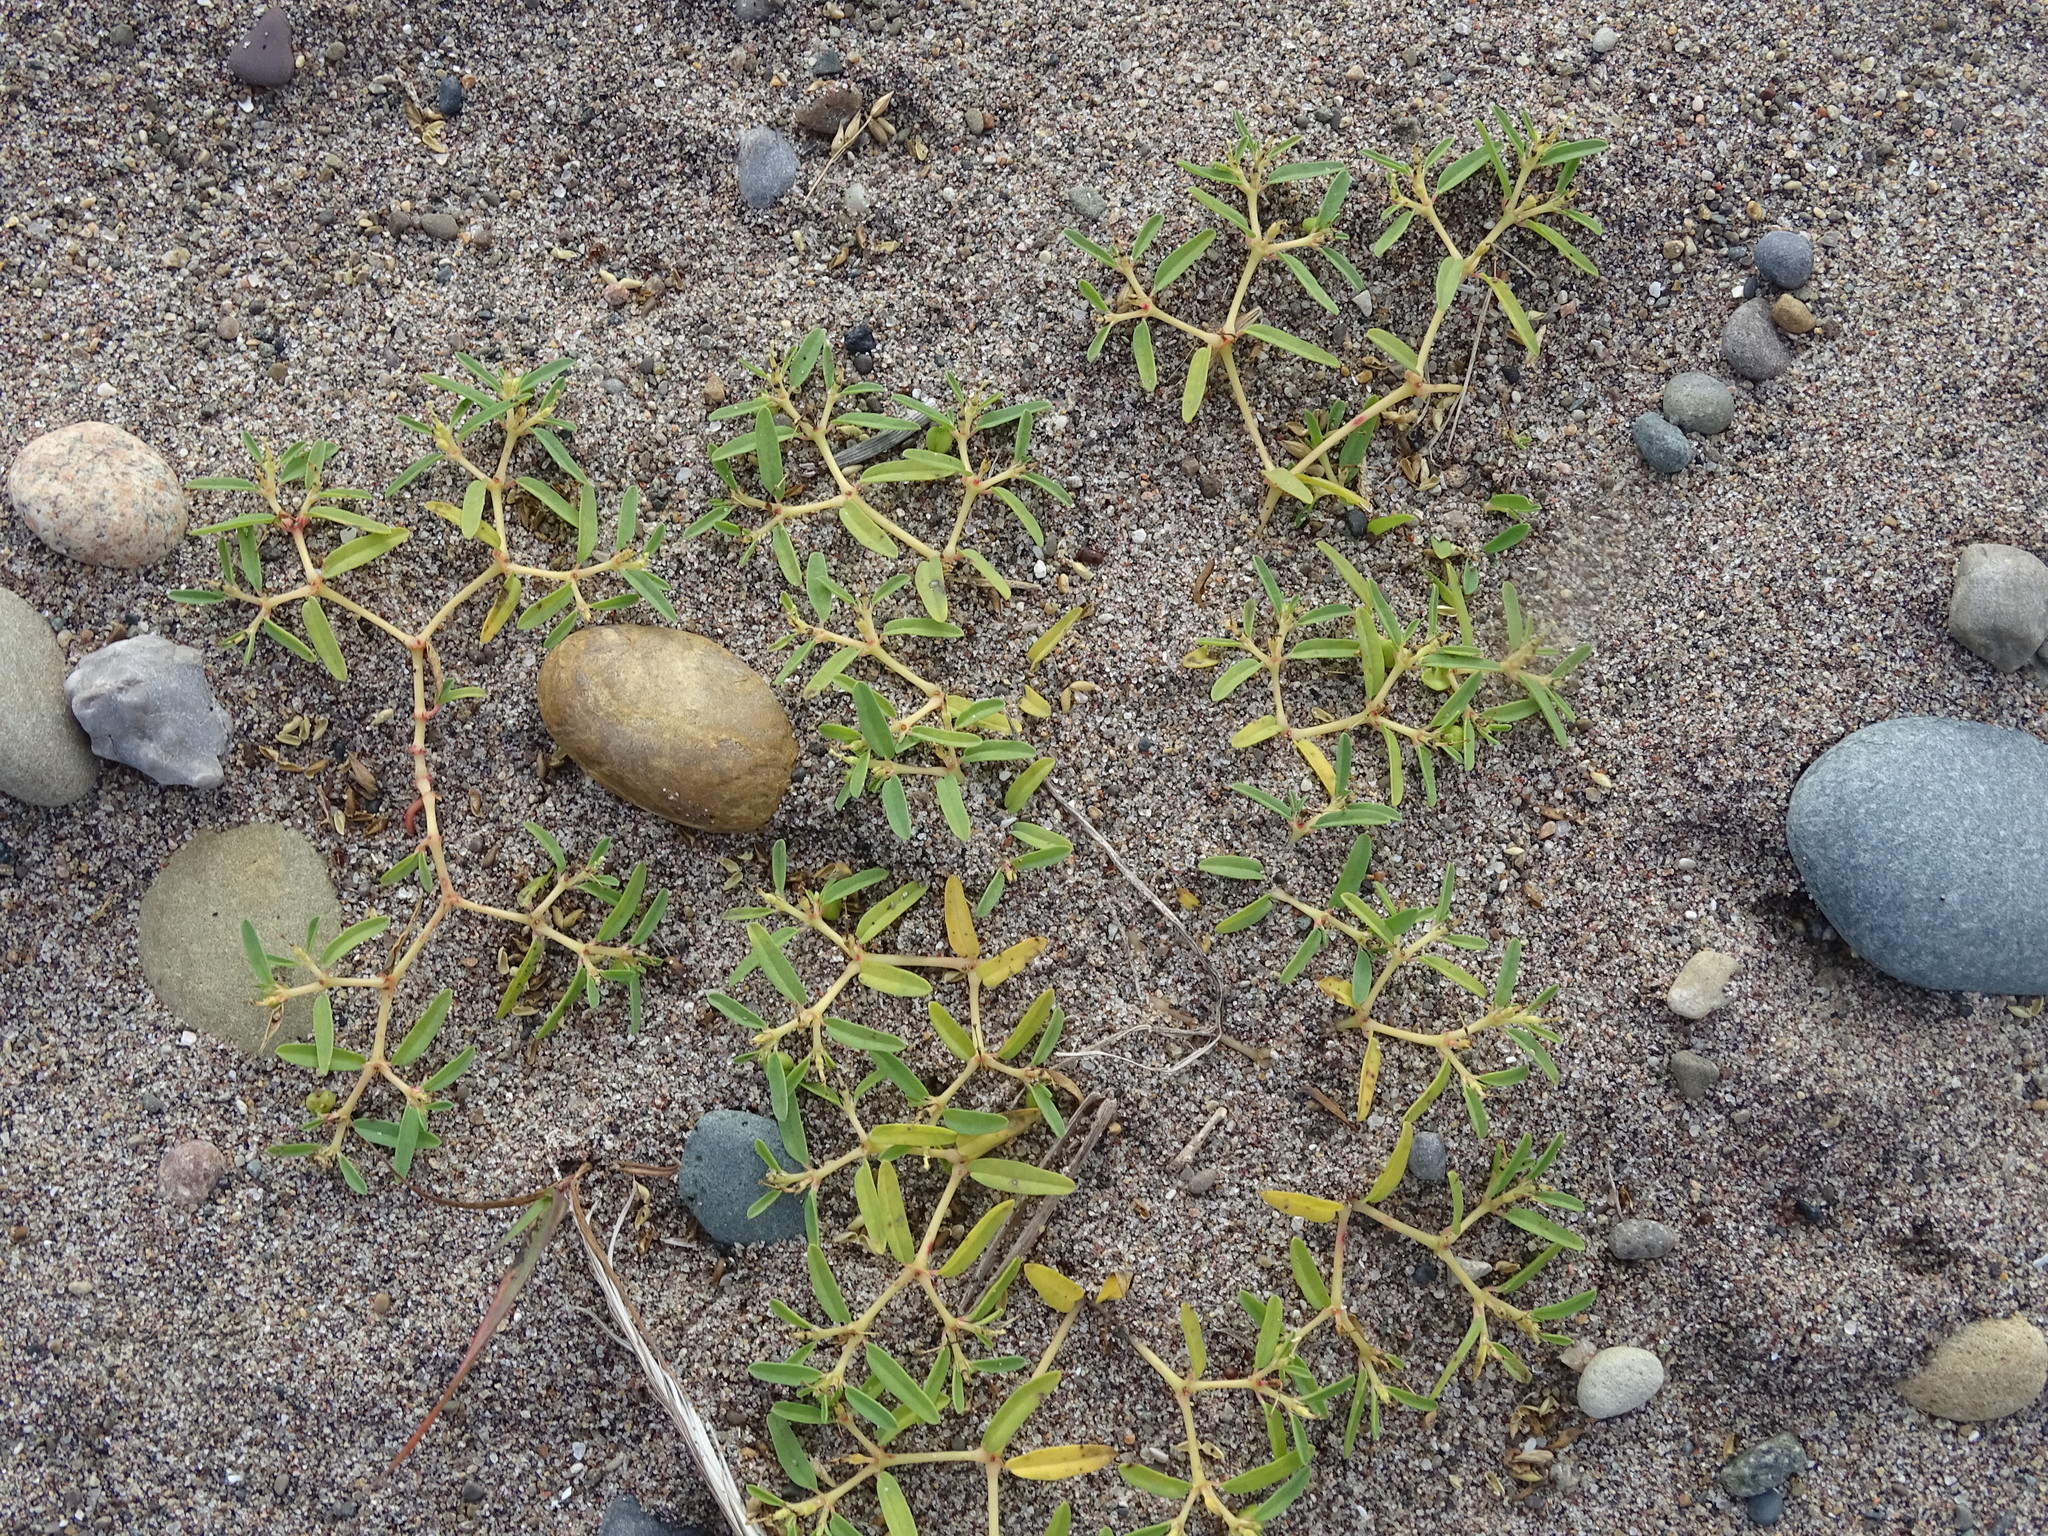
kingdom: Plantae
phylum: Tracheophyta
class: Magnoliopsida
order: Malpighiales
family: Euphorbiaceae
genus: Euphorbia
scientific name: Euphorbia polygonifolia
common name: Knotweed spurge
